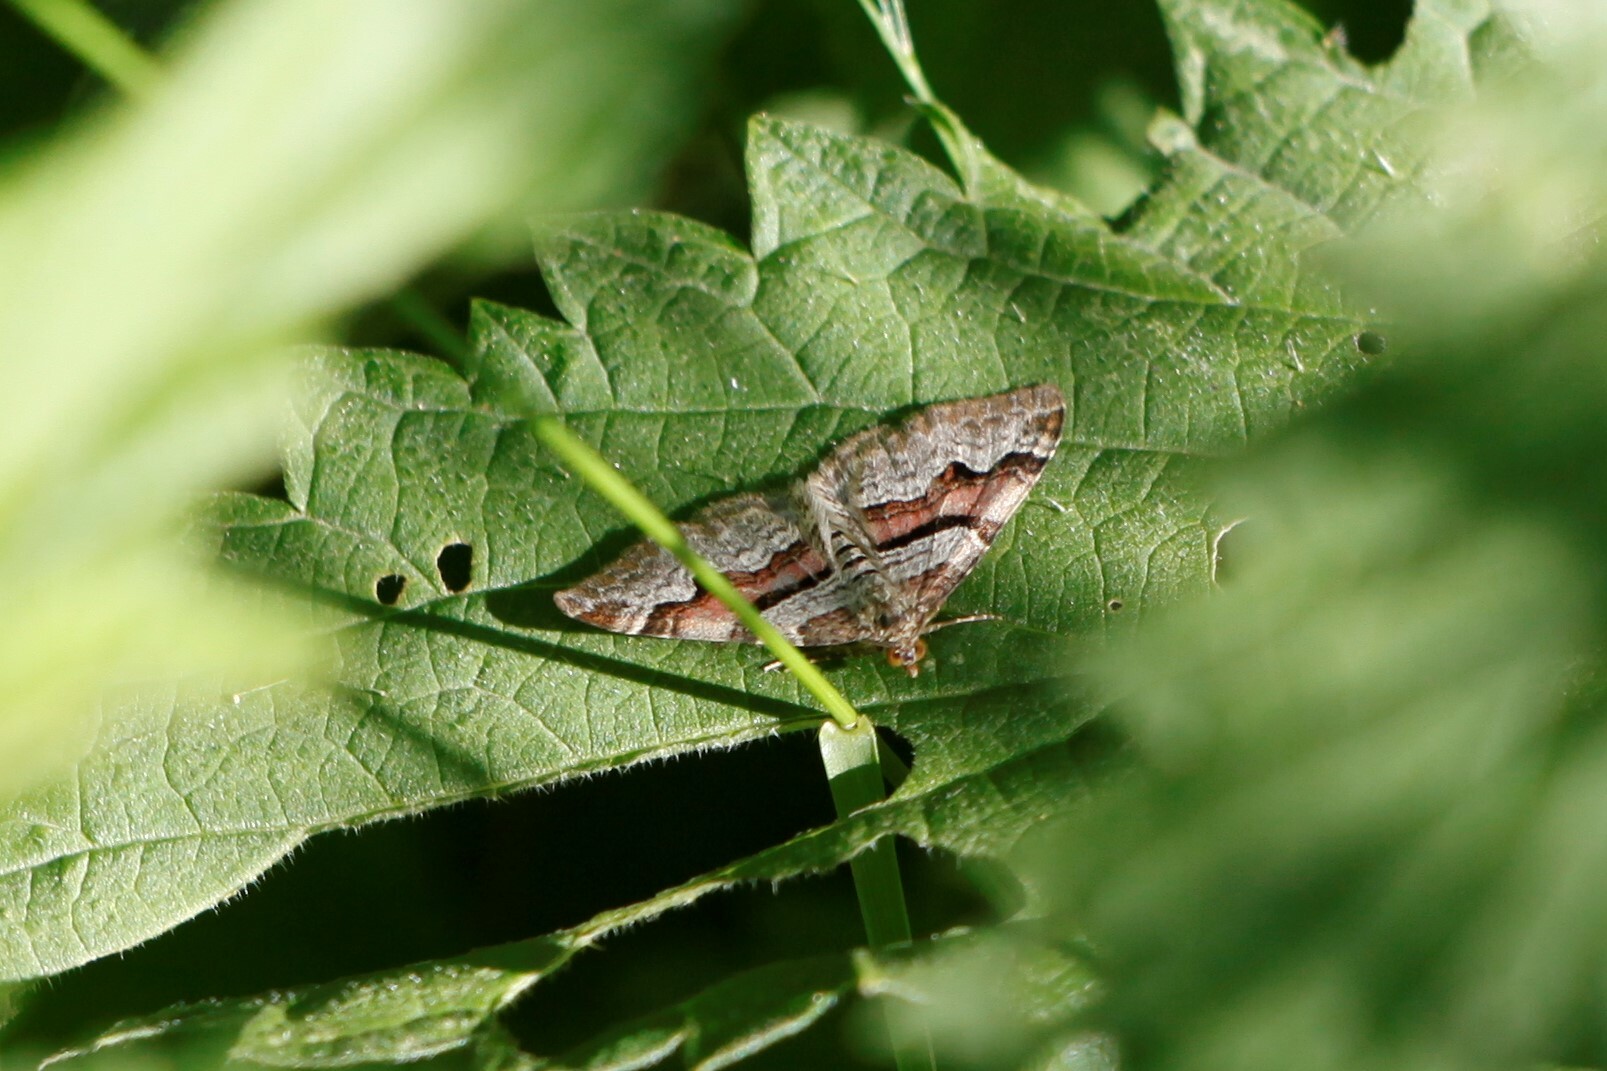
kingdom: Animalia
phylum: Arthropoda
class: Insecta
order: Lepidoptera
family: Geometridae
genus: Xanthorhoe
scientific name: Xanthorhoe designata
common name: Flame carpet
